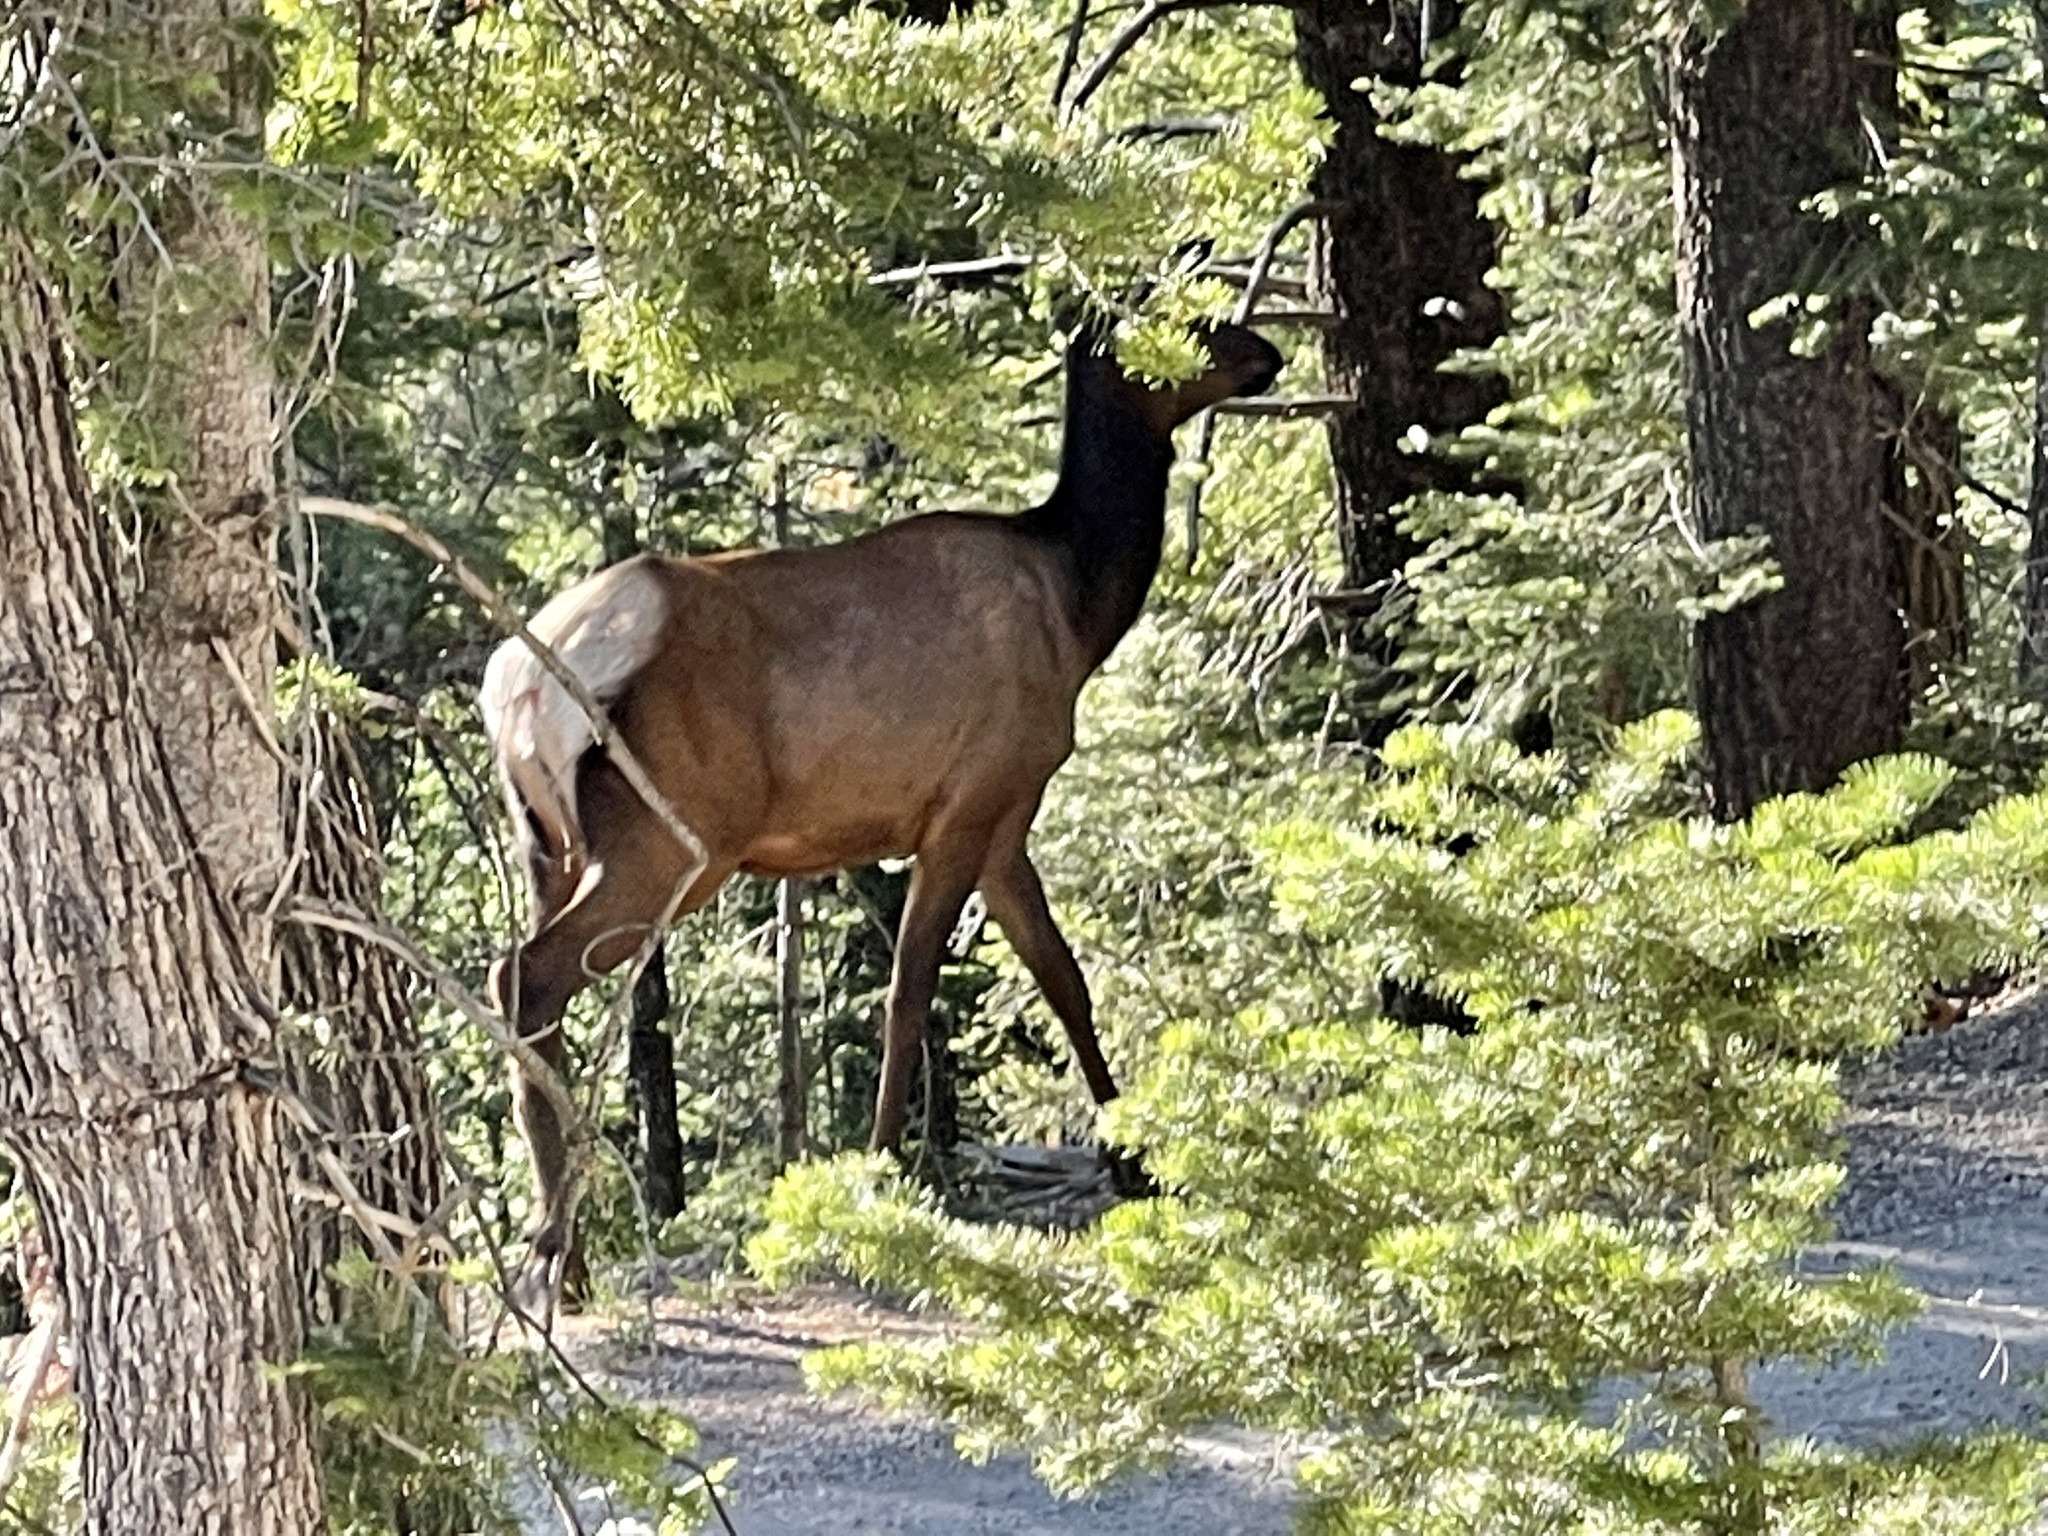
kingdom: Animalia
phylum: Chordata
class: Mammalia
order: Artiodactyla
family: Cervidae
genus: Cervus
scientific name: Cervus elaphus
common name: Red deer
